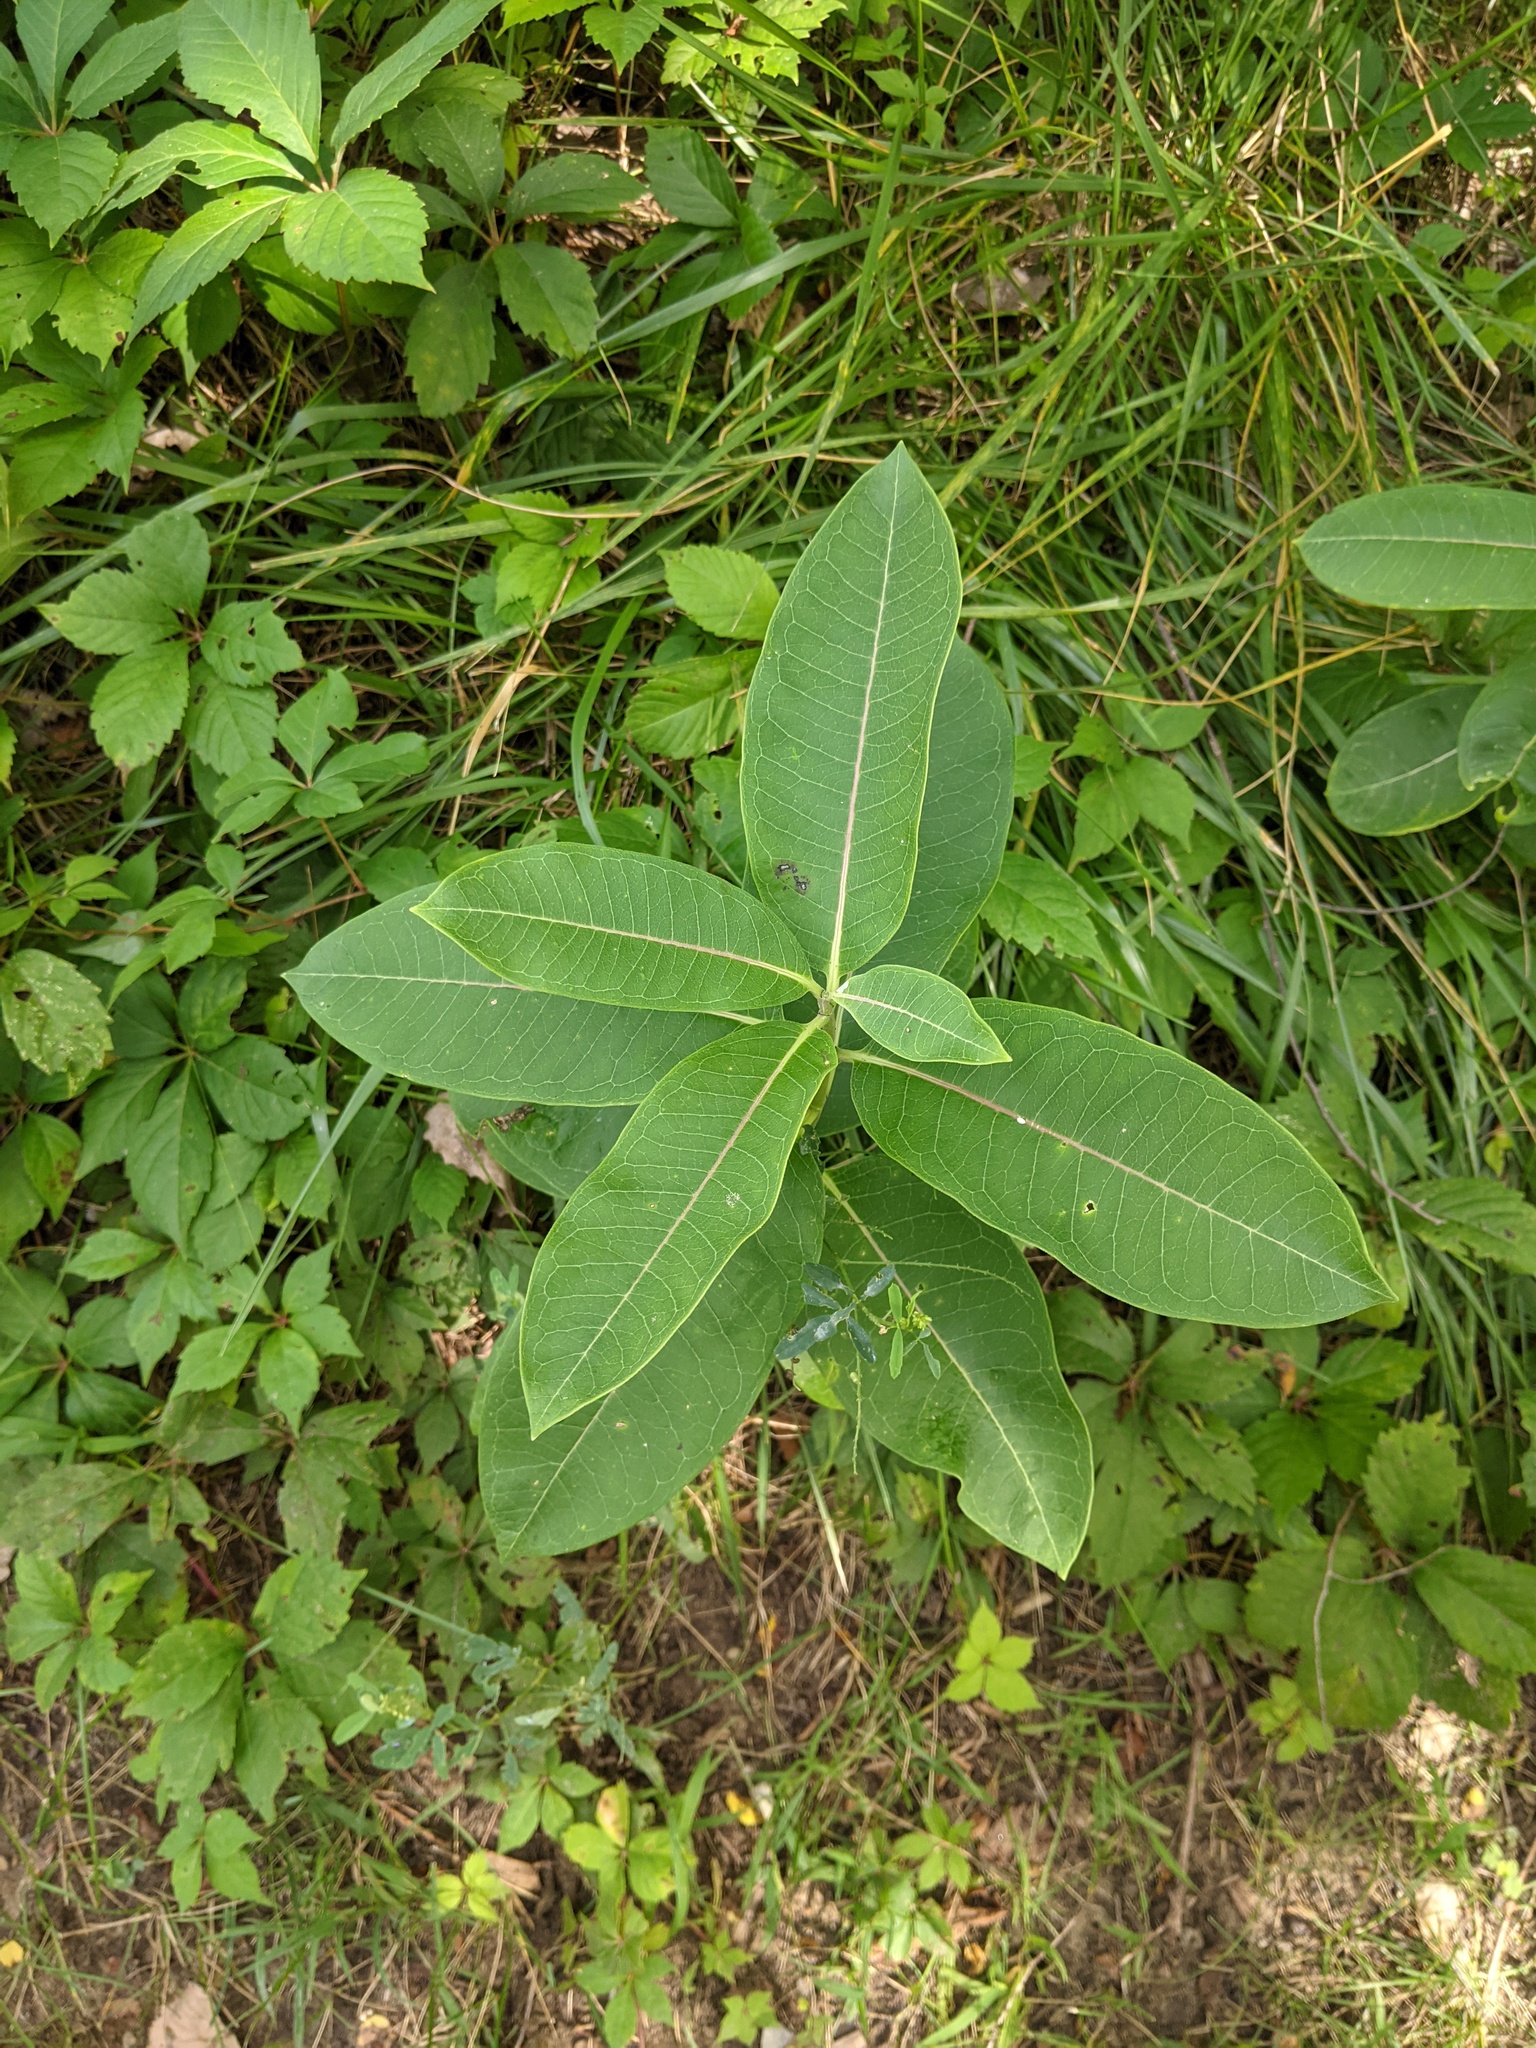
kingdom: Plantae
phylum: Tracheophyta
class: Magnoliopsida
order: Gentianales
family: Apocynaceae
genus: Asclepias
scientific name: Asclepias syriaca
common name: Common milkweed
